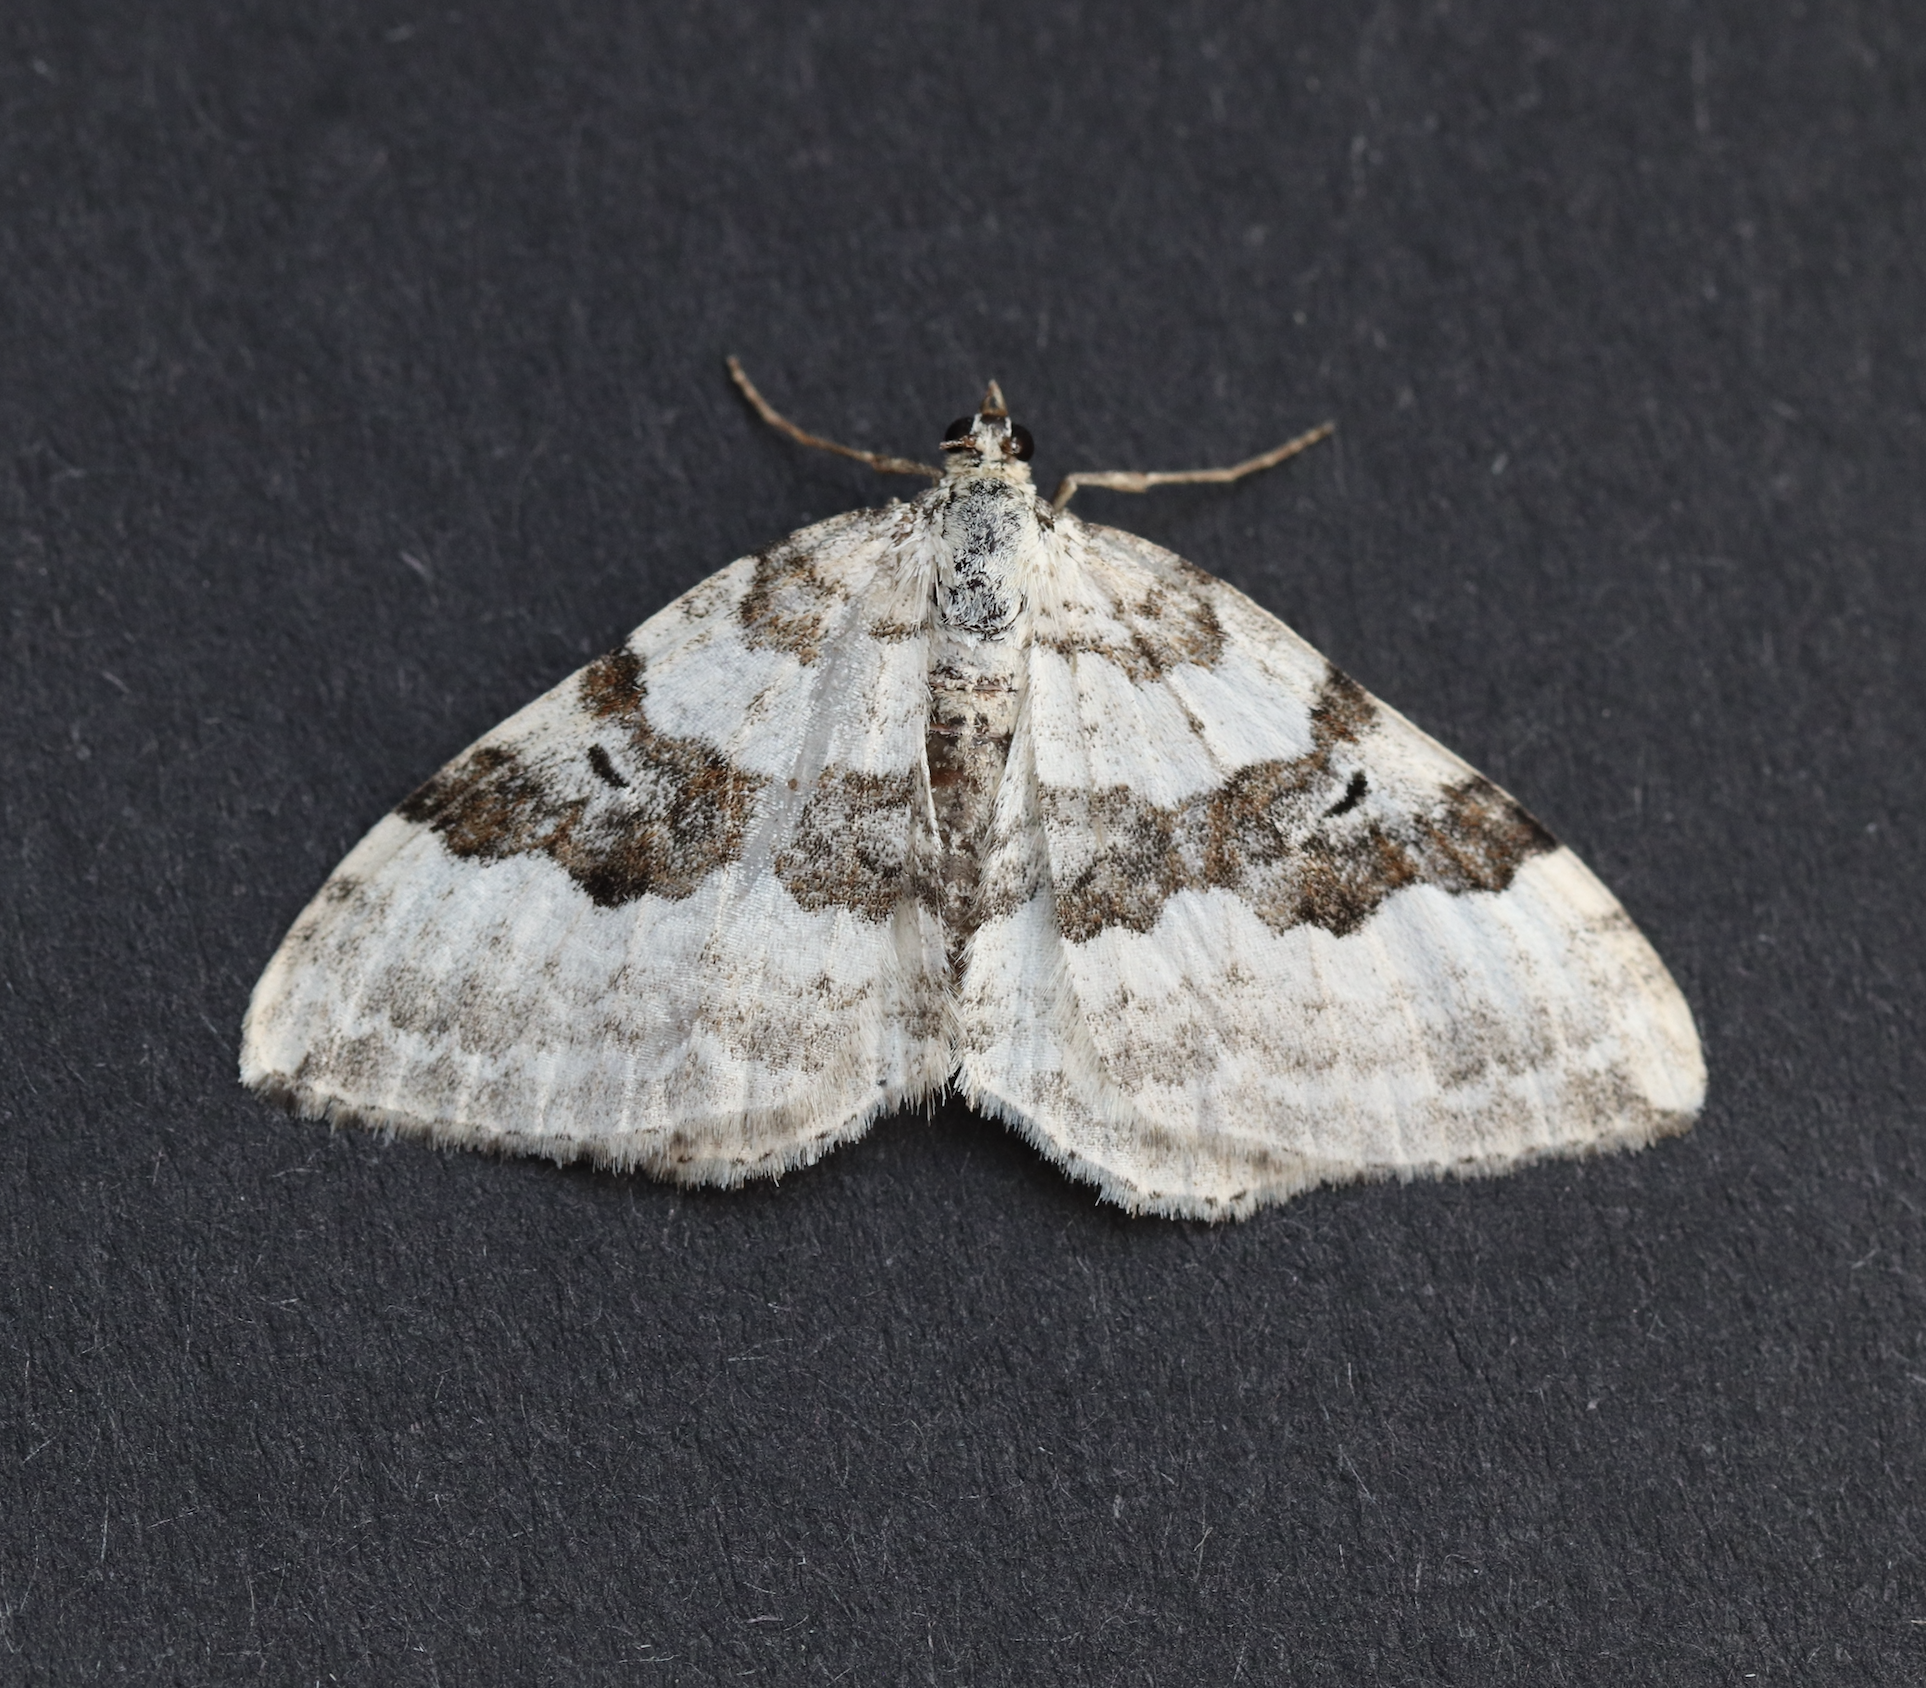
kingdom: Animalia
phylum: Arthropoda
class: Insecta
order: Lepidoptera
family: Geometridae
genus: Xanthorhoe
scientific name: Xanthorhoe montanata
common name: Silver-ground carpet
